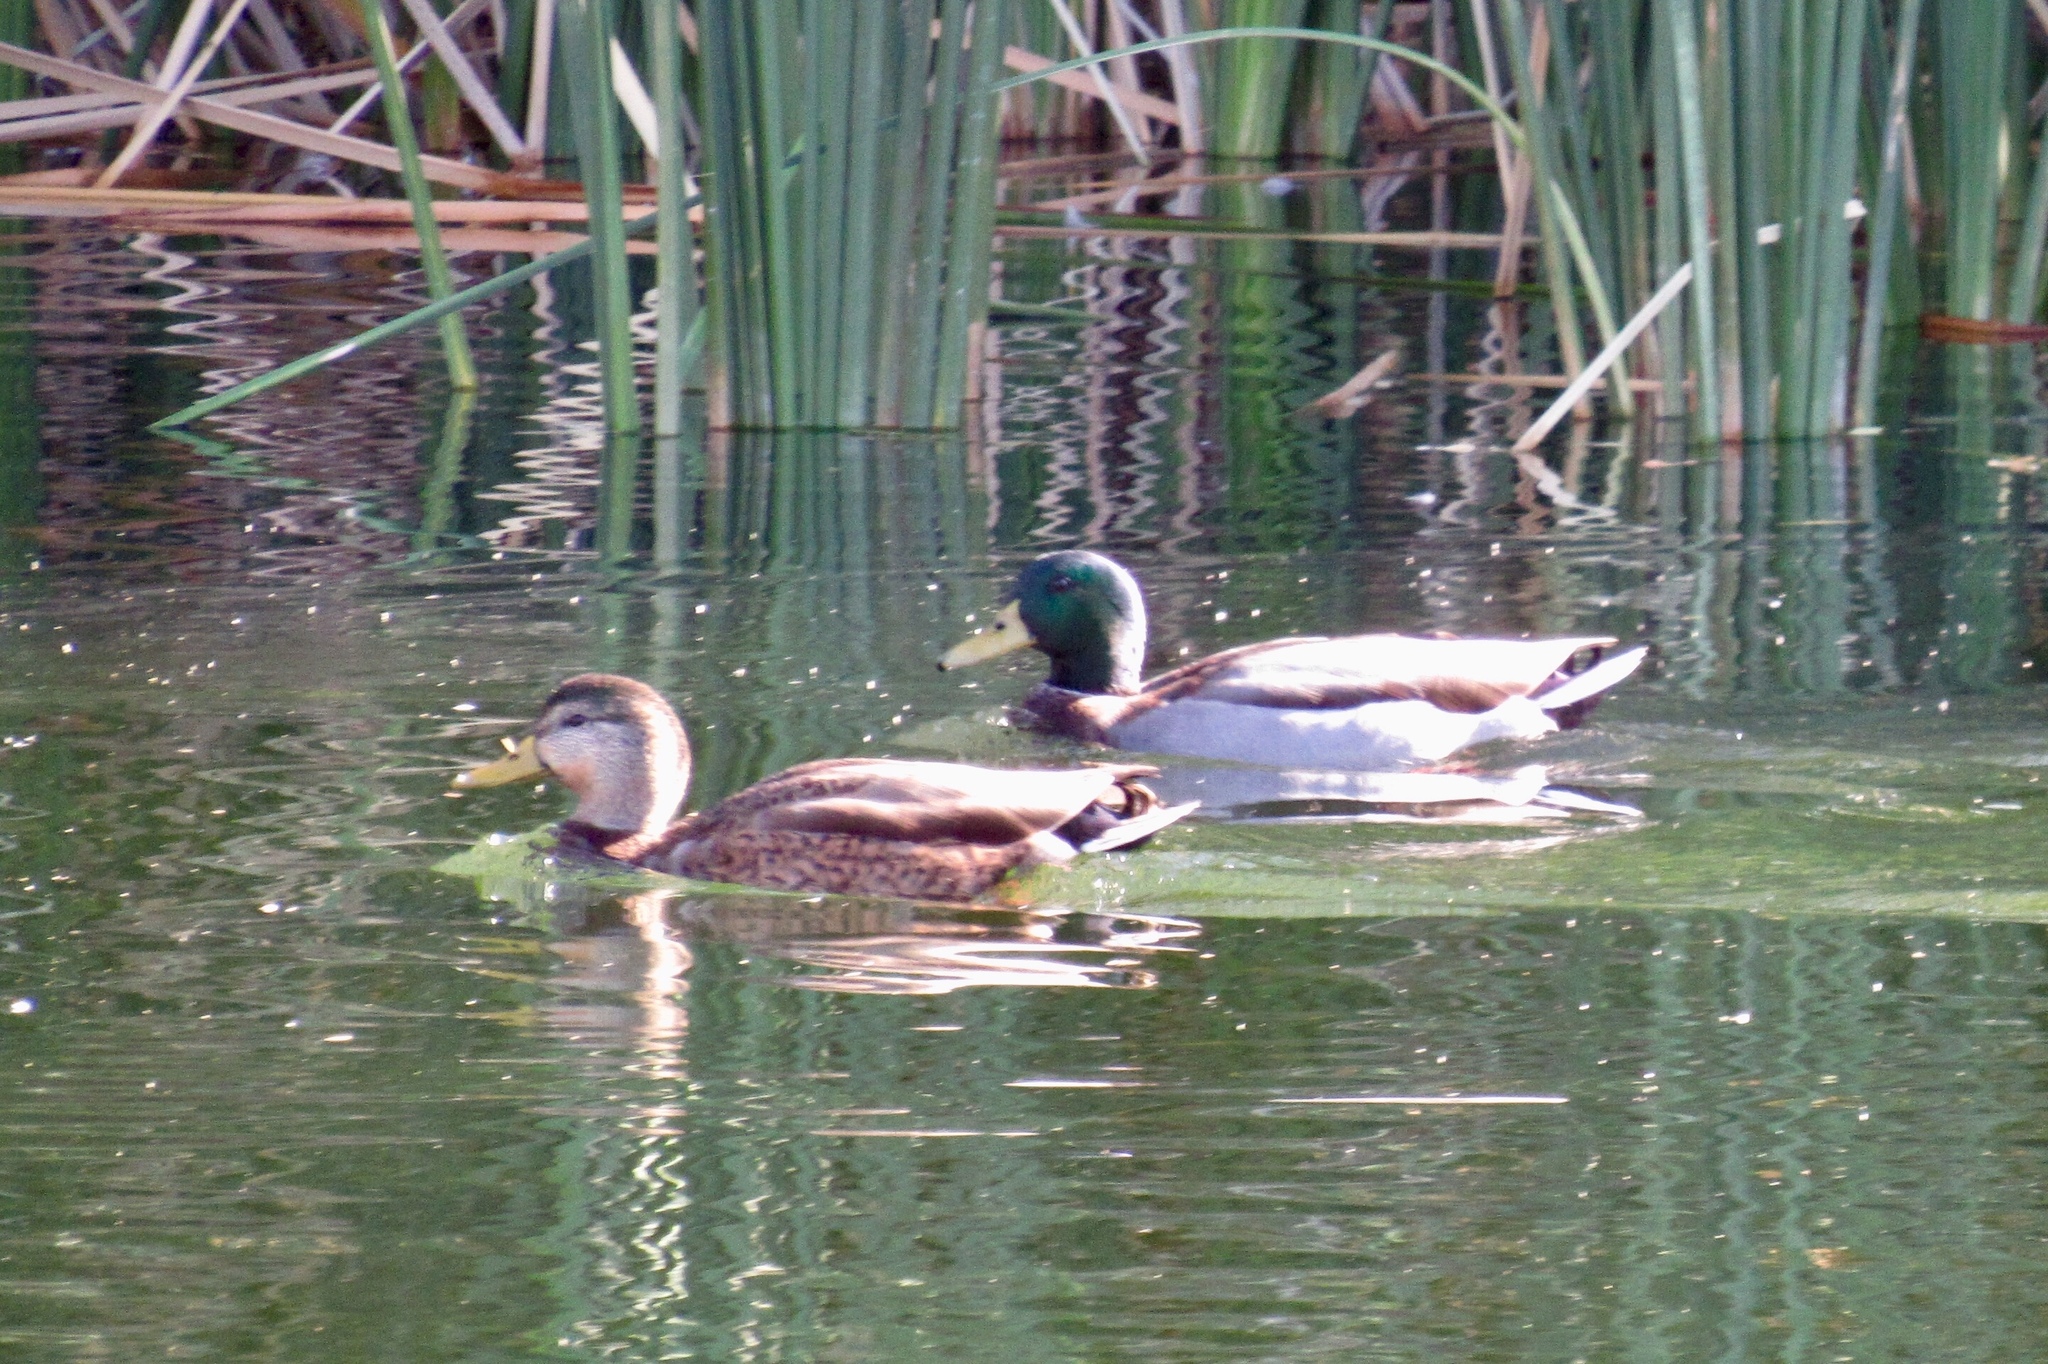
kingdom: Animalia
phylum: Chordata
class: Aves
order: Anseriformes
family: Anatidae
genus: Anas
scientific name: Anas platyrhynchos
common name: Mallard
